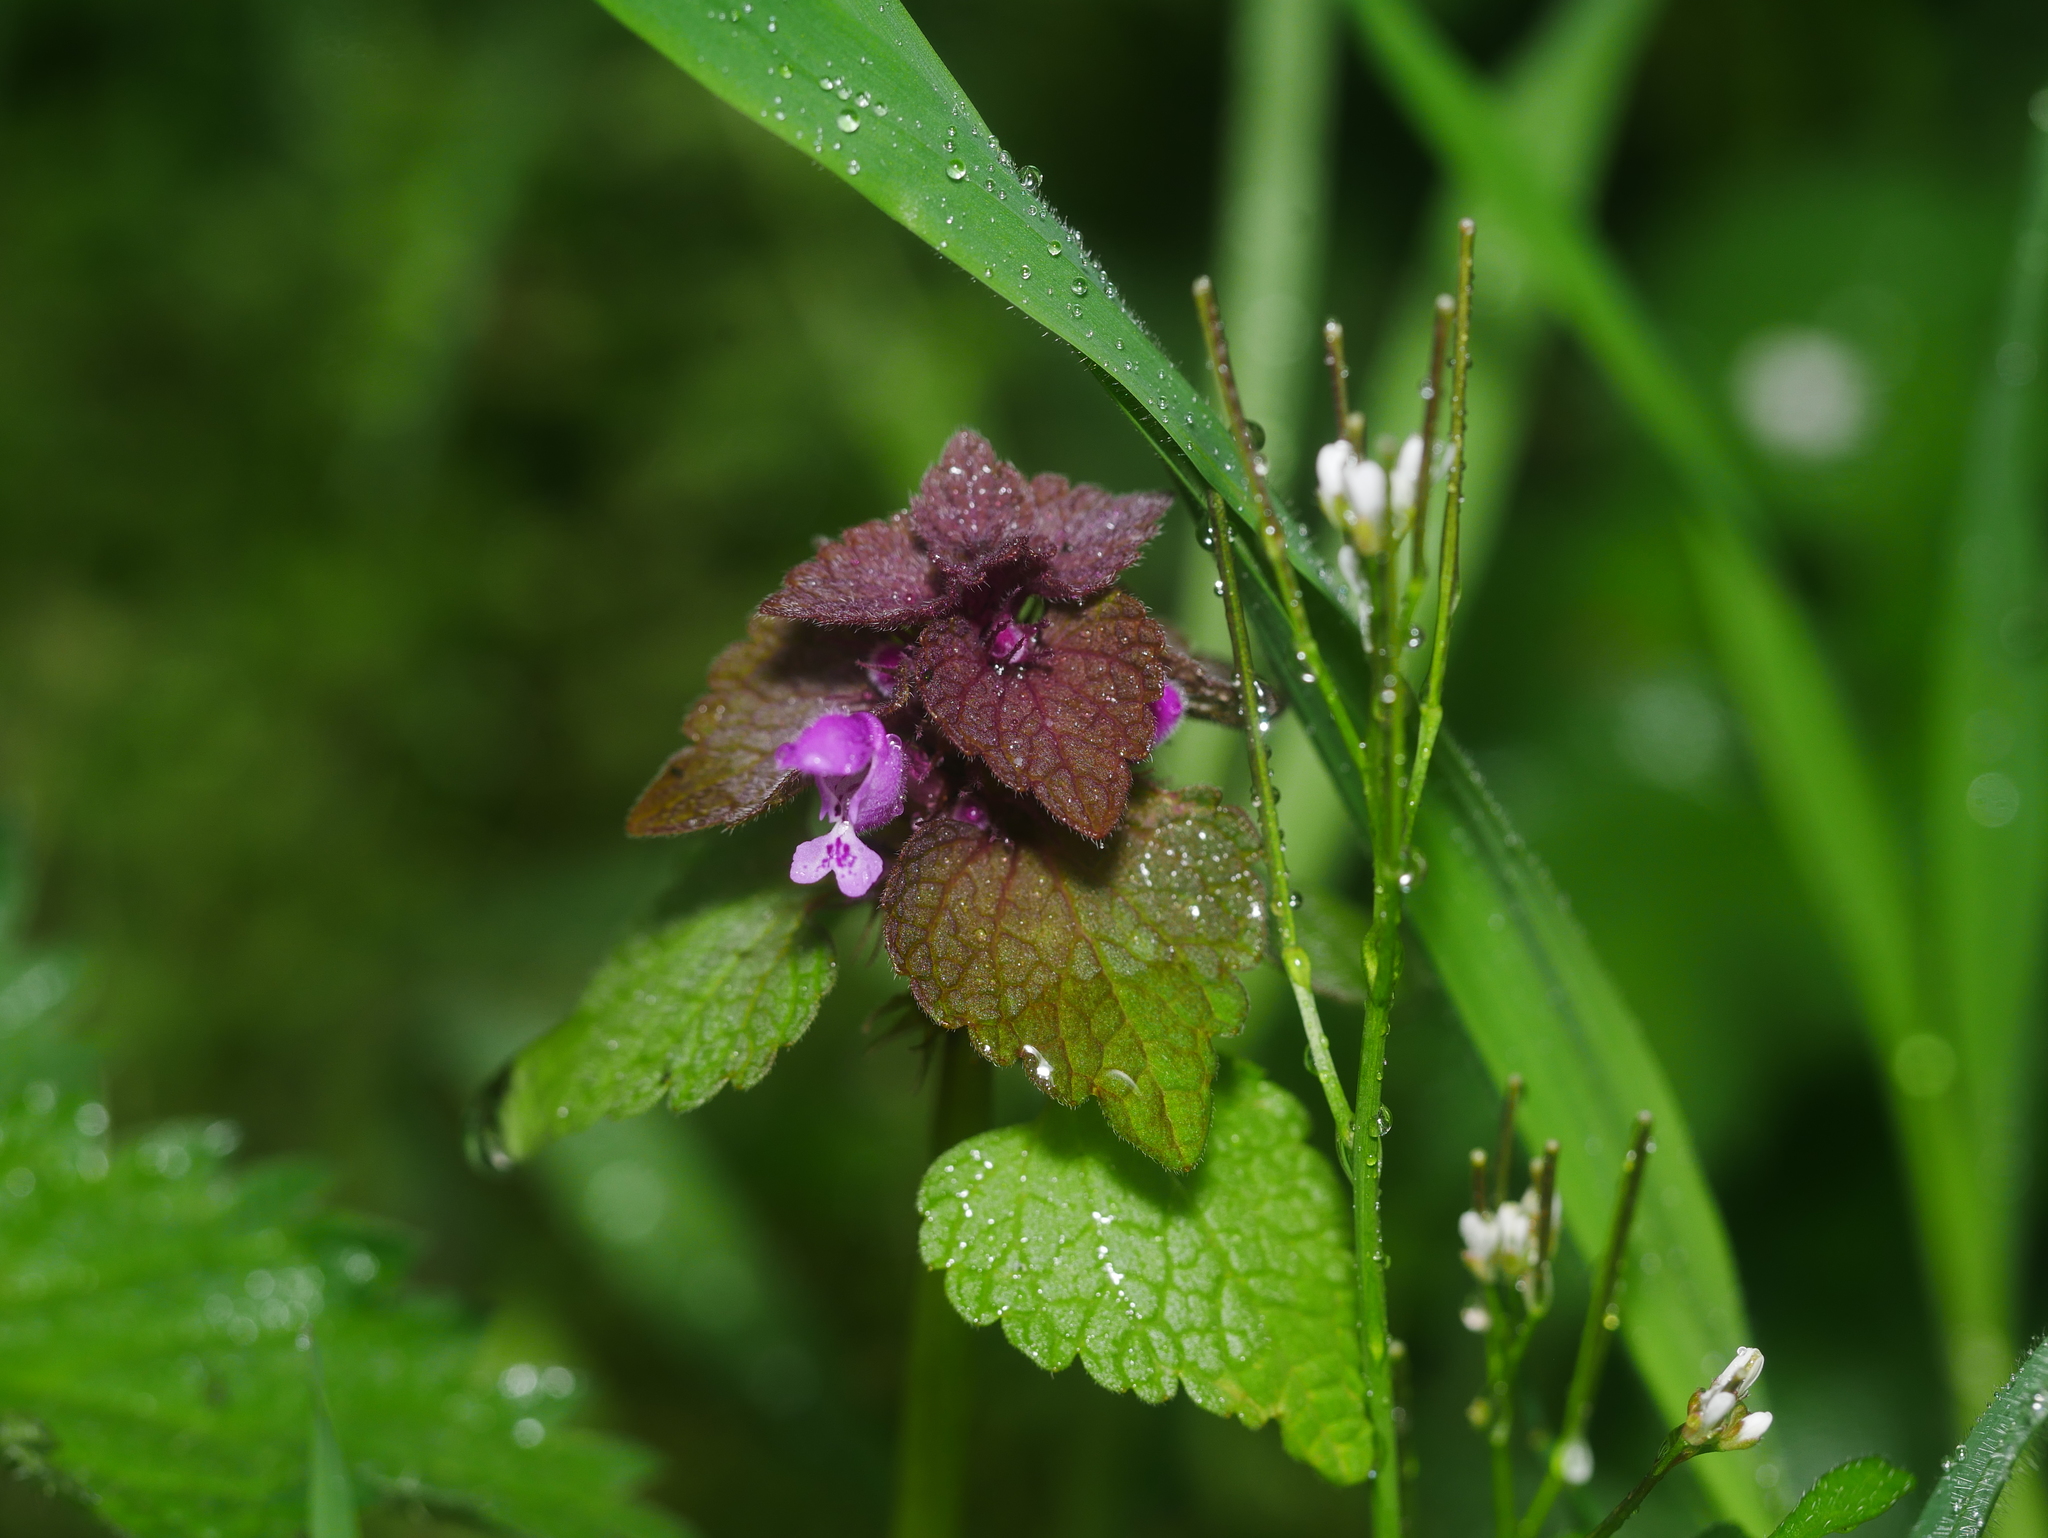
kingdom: Plantae
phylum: Tracheophyta
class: Magnoliopsida
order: Lamiales
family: Lamiaceae
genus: Lamium
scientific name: Lamium purpureum
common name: Red dead-nettle
